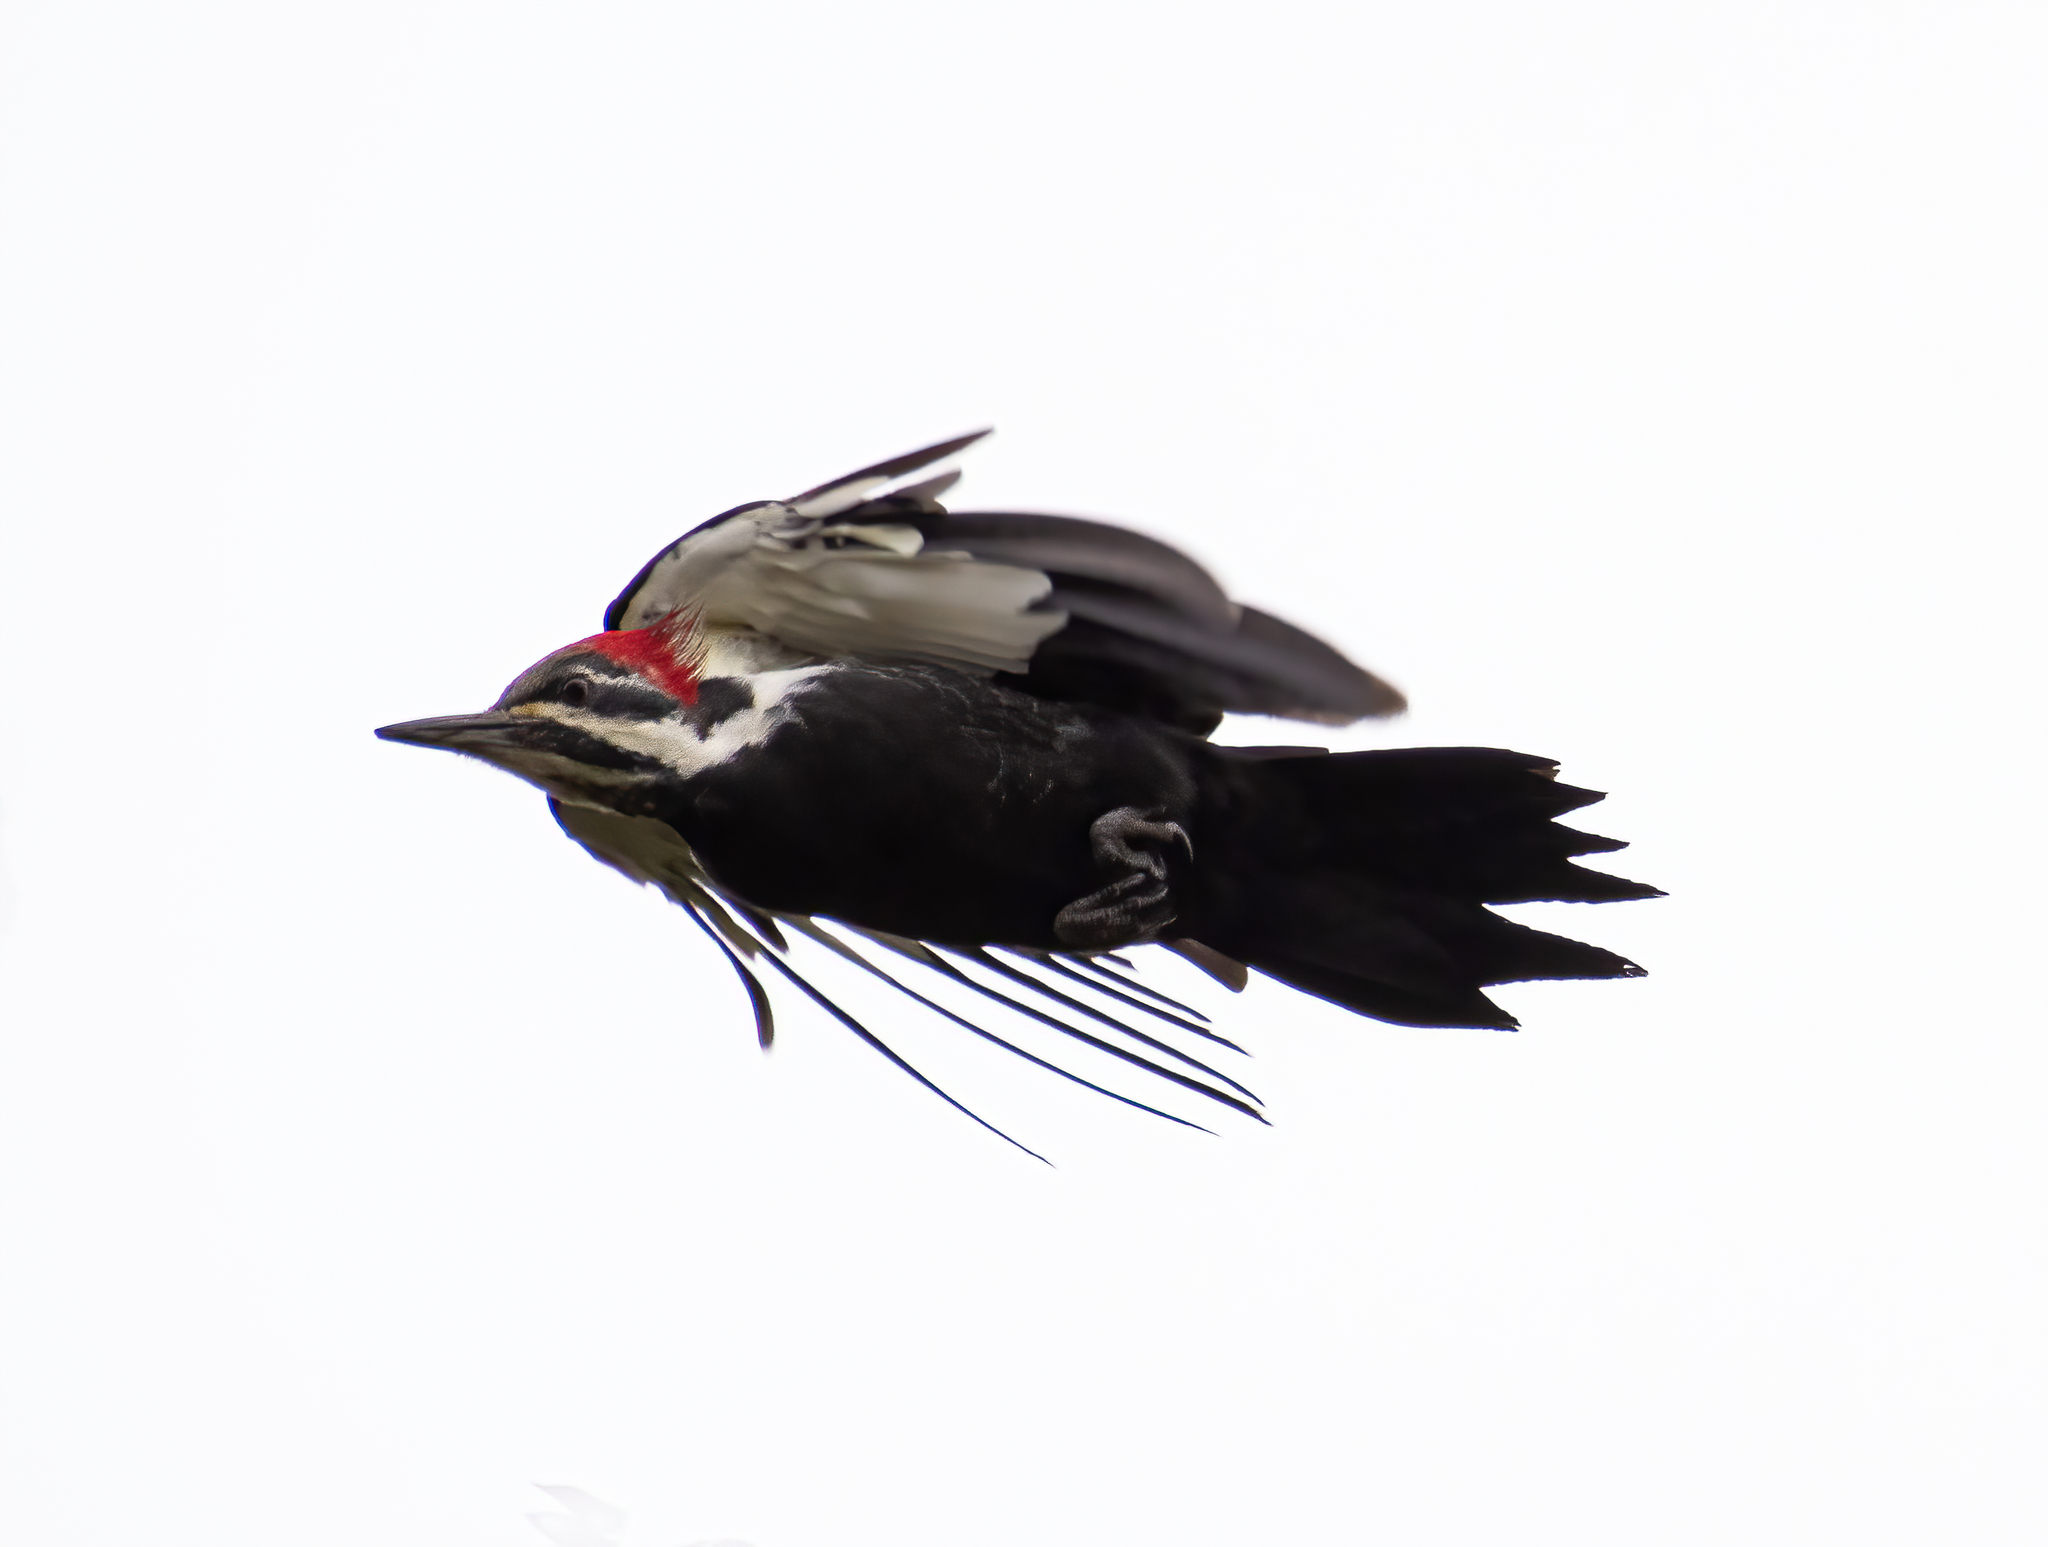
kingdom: Animalia
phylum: Chordata
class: Aves
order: Piciformes
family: Picidae
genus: Dryocopus
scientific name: Dryocopus pileatus
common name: Pileated woodpecker
